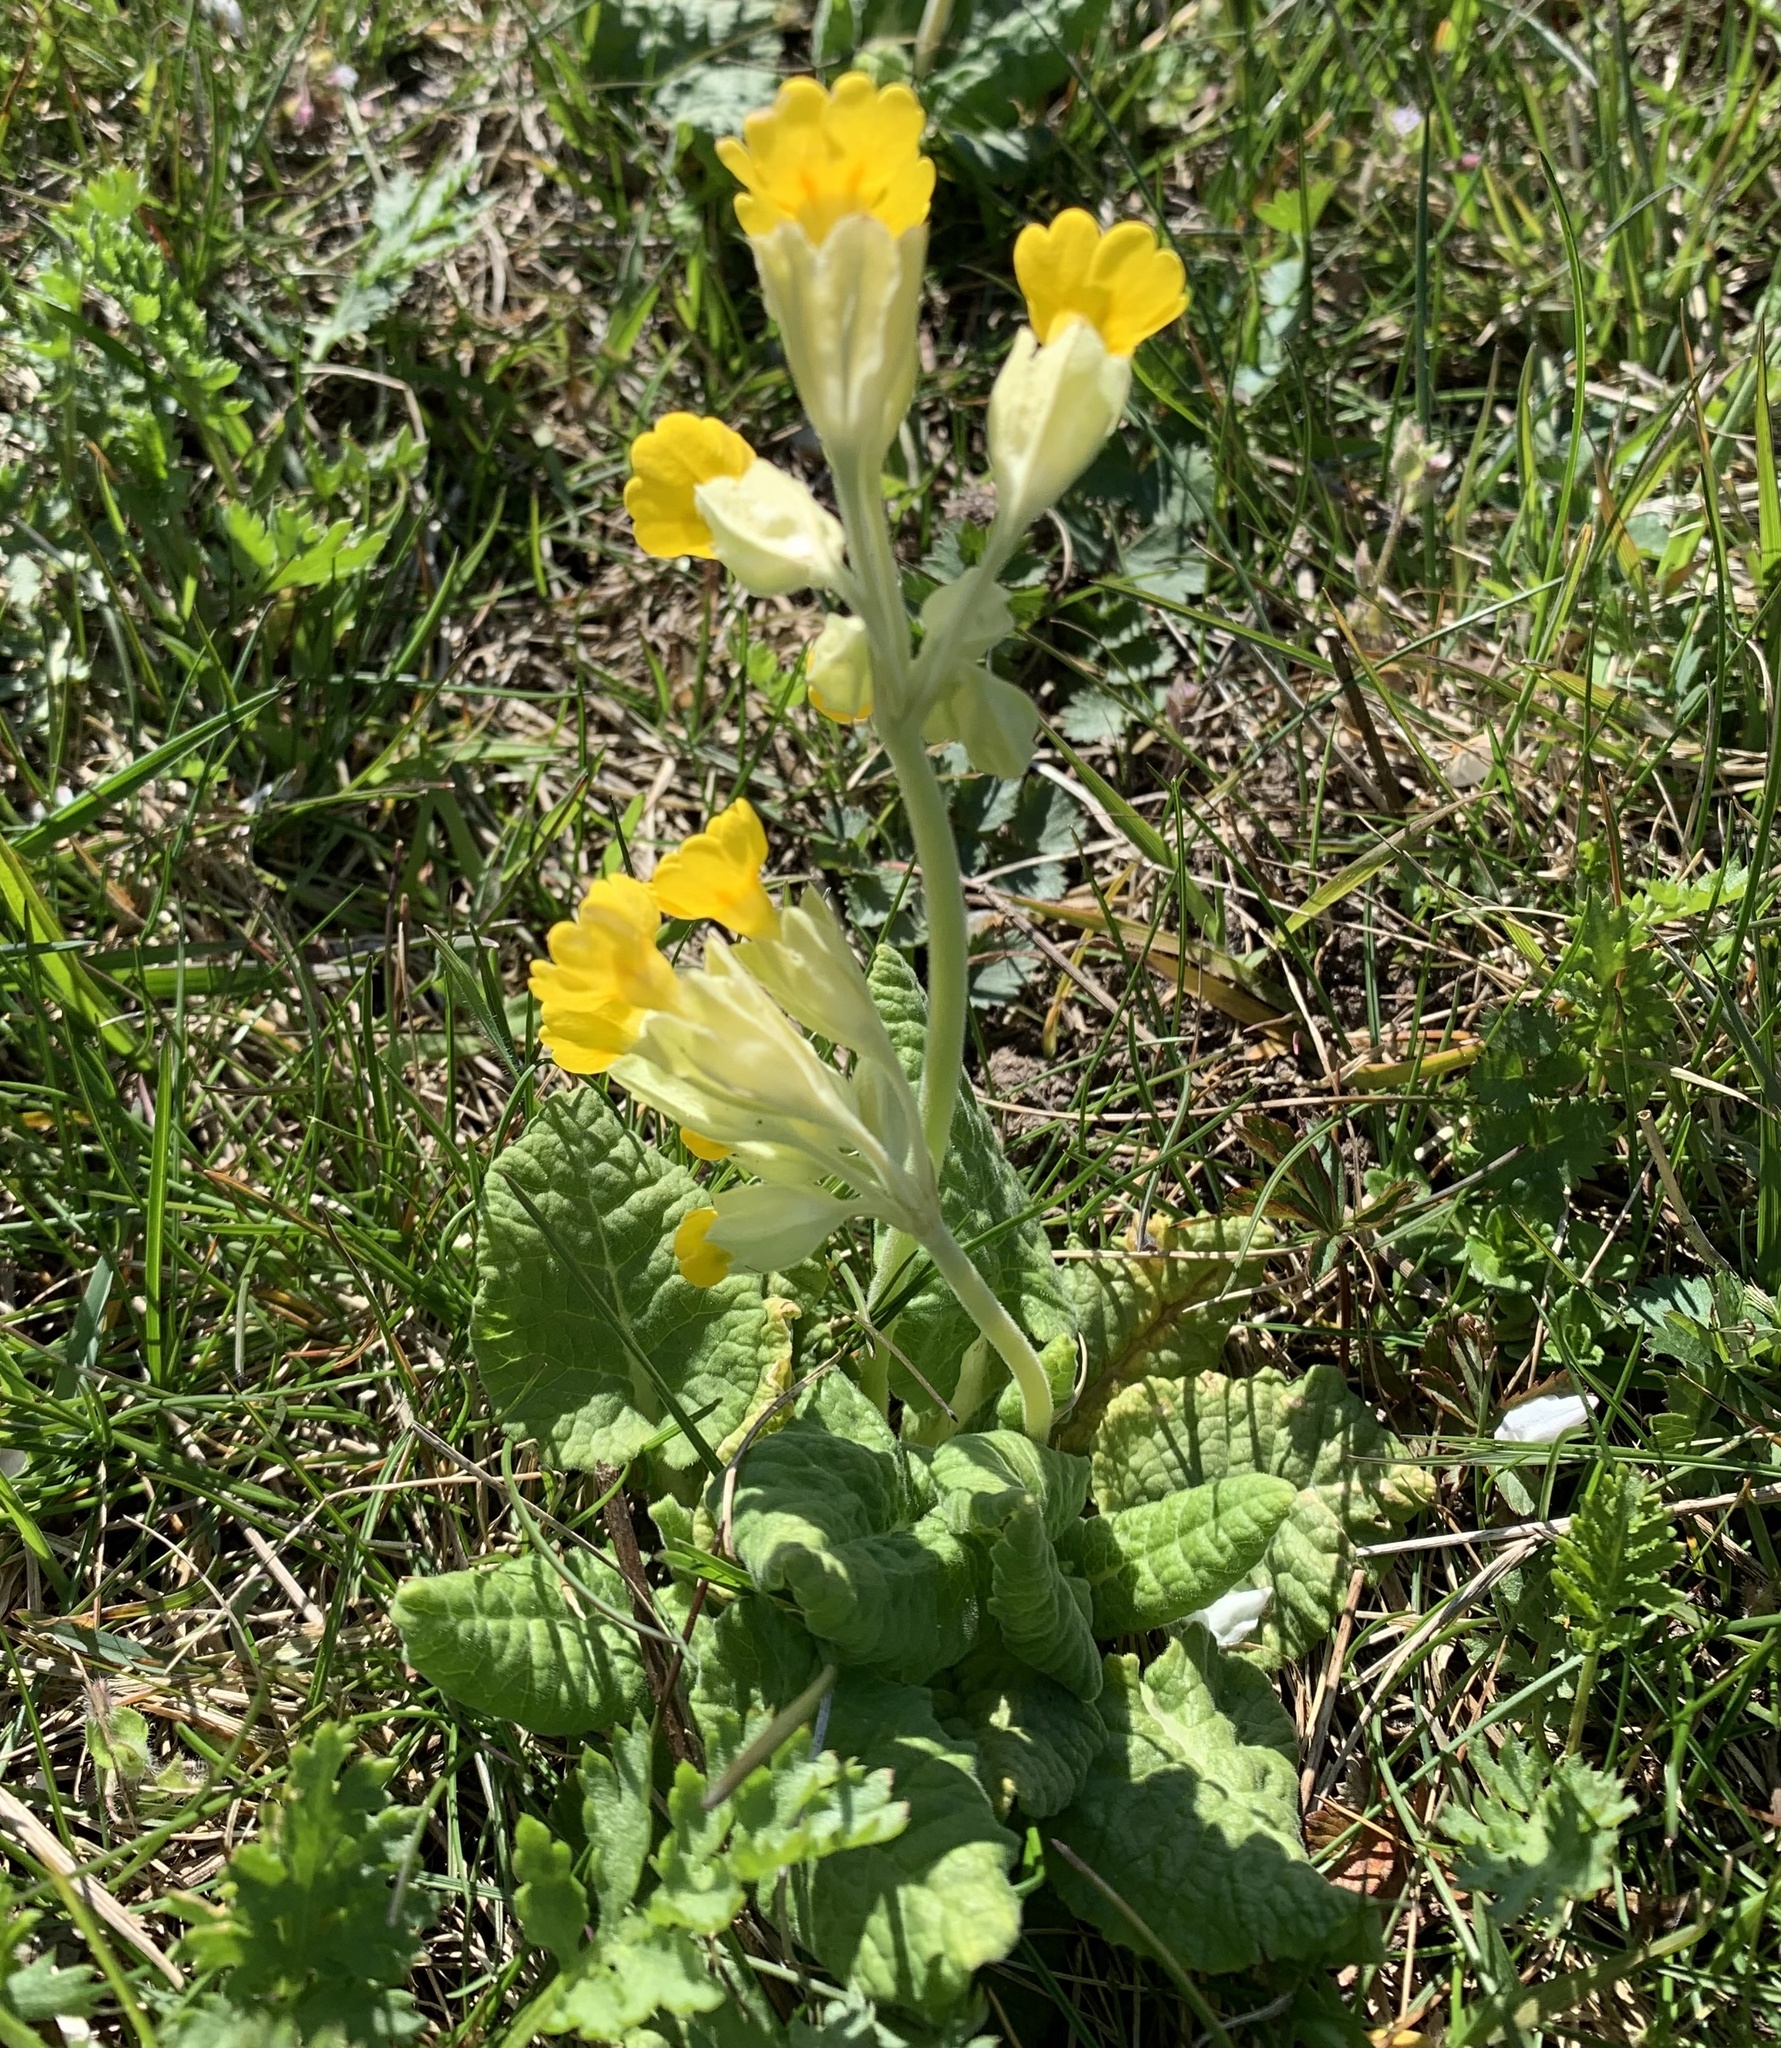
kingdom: Plantae
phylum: Tracheophyta
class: Magnoliopsida
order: Ericales
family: Primulaceae
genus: Primula
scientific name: Primula veris
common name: Cowslip
